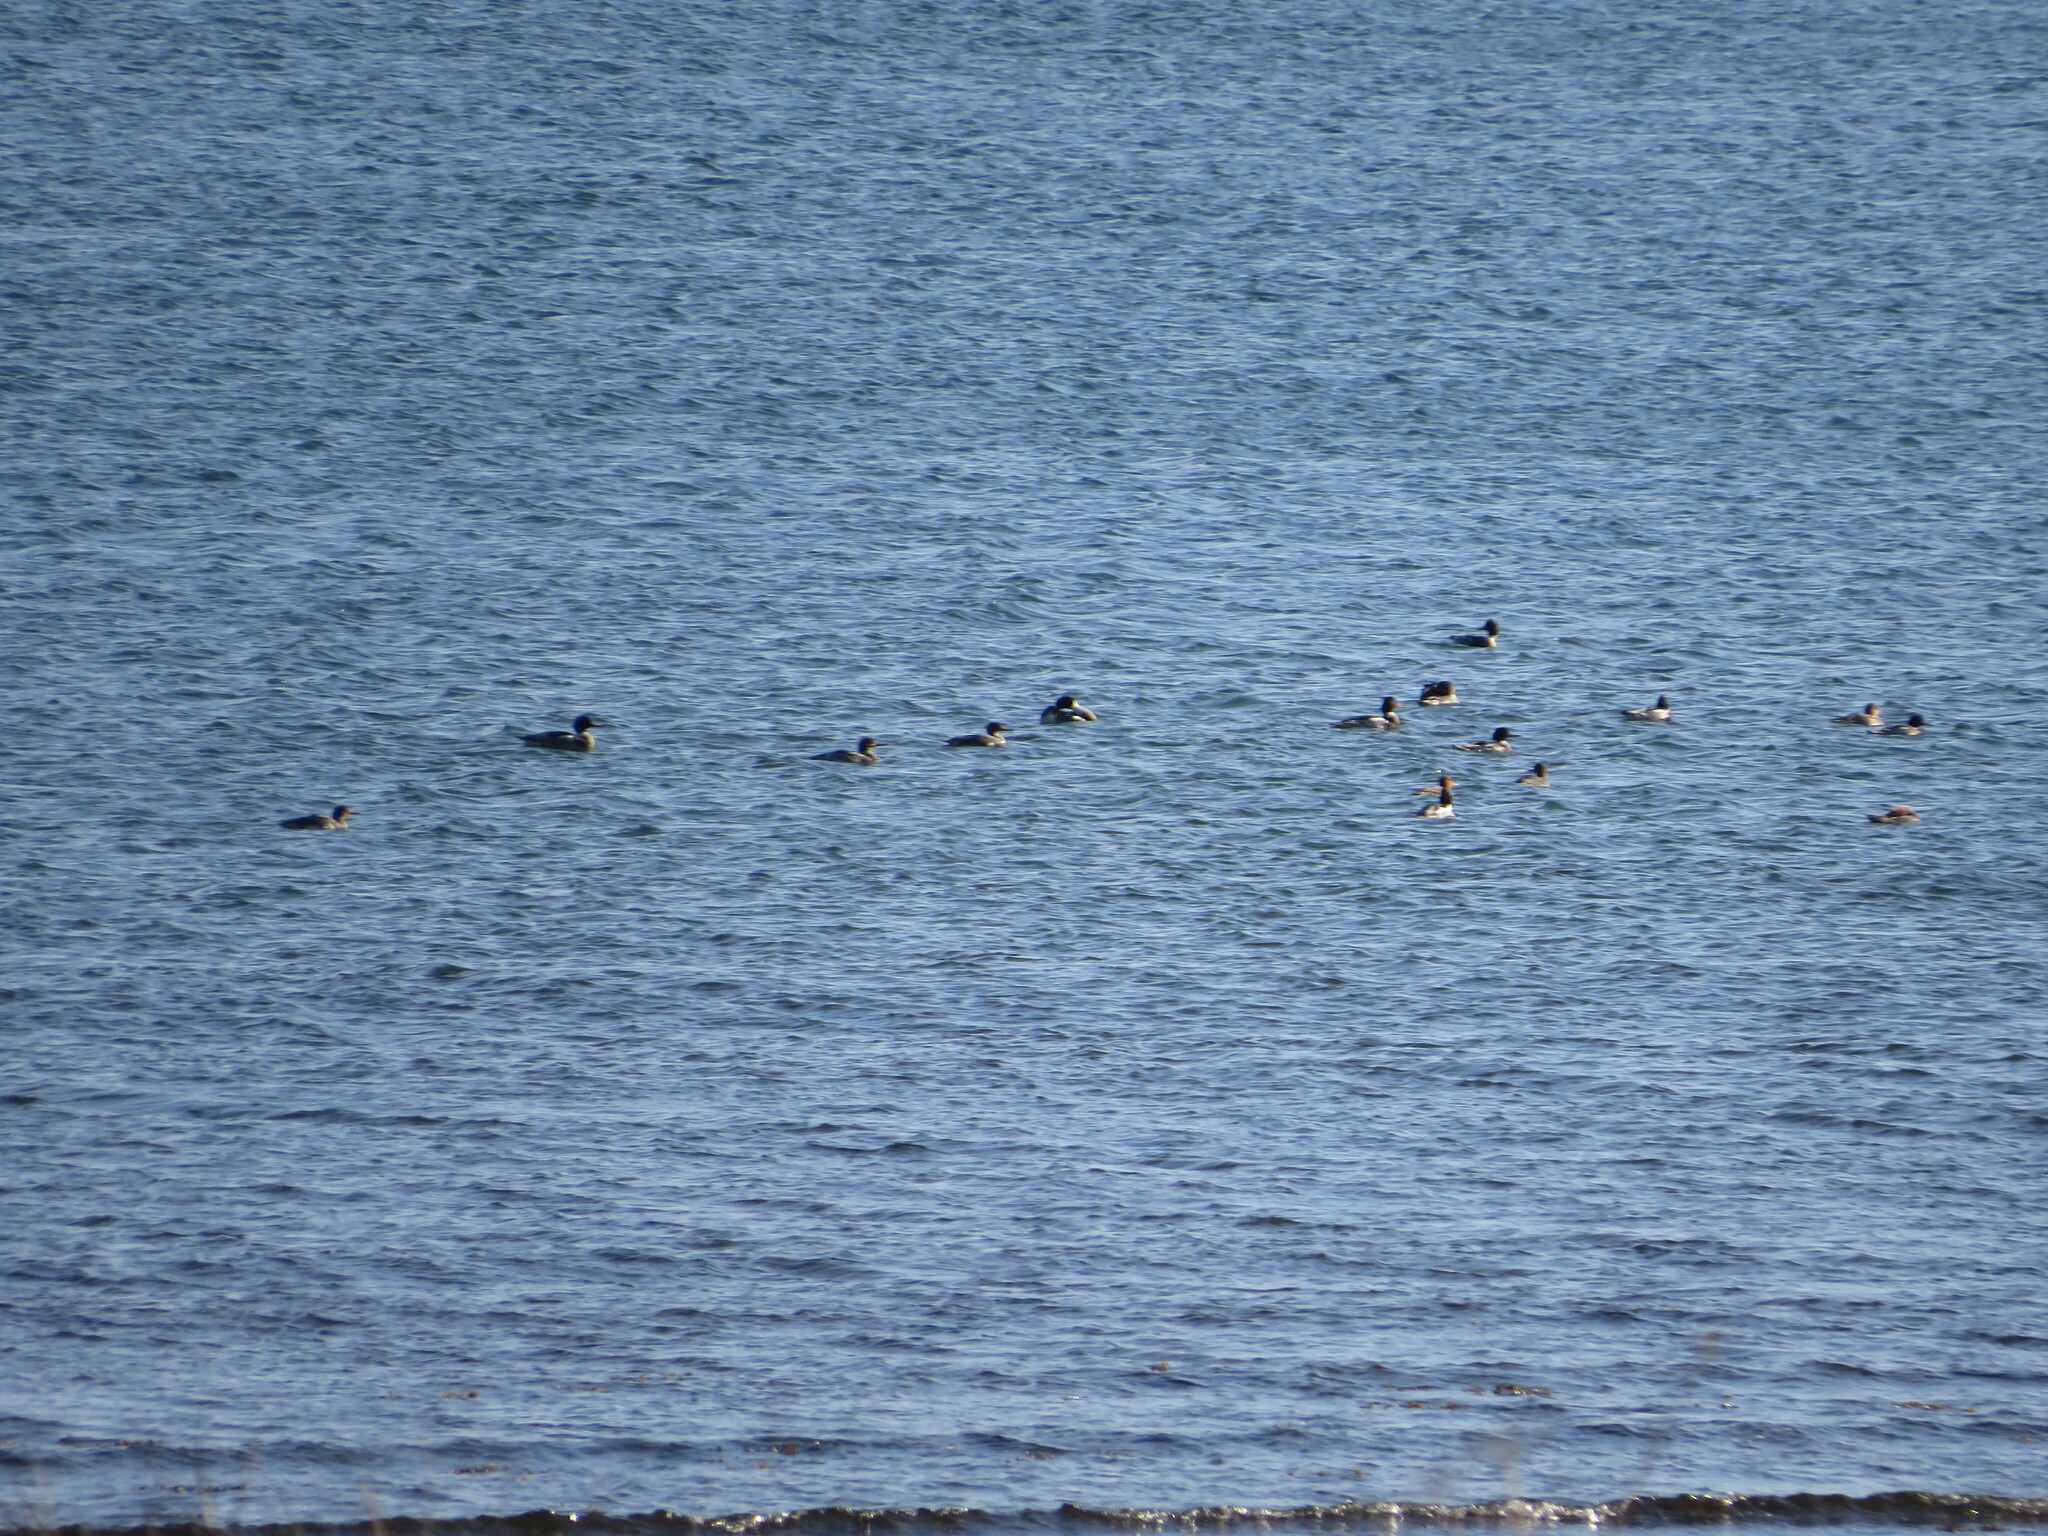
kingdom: Animalia
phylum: Chordata
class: Aves
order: Anseriformes
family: Anatidae
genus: Mergus
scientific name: Mergus serrator
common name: Red-breasted merganser
